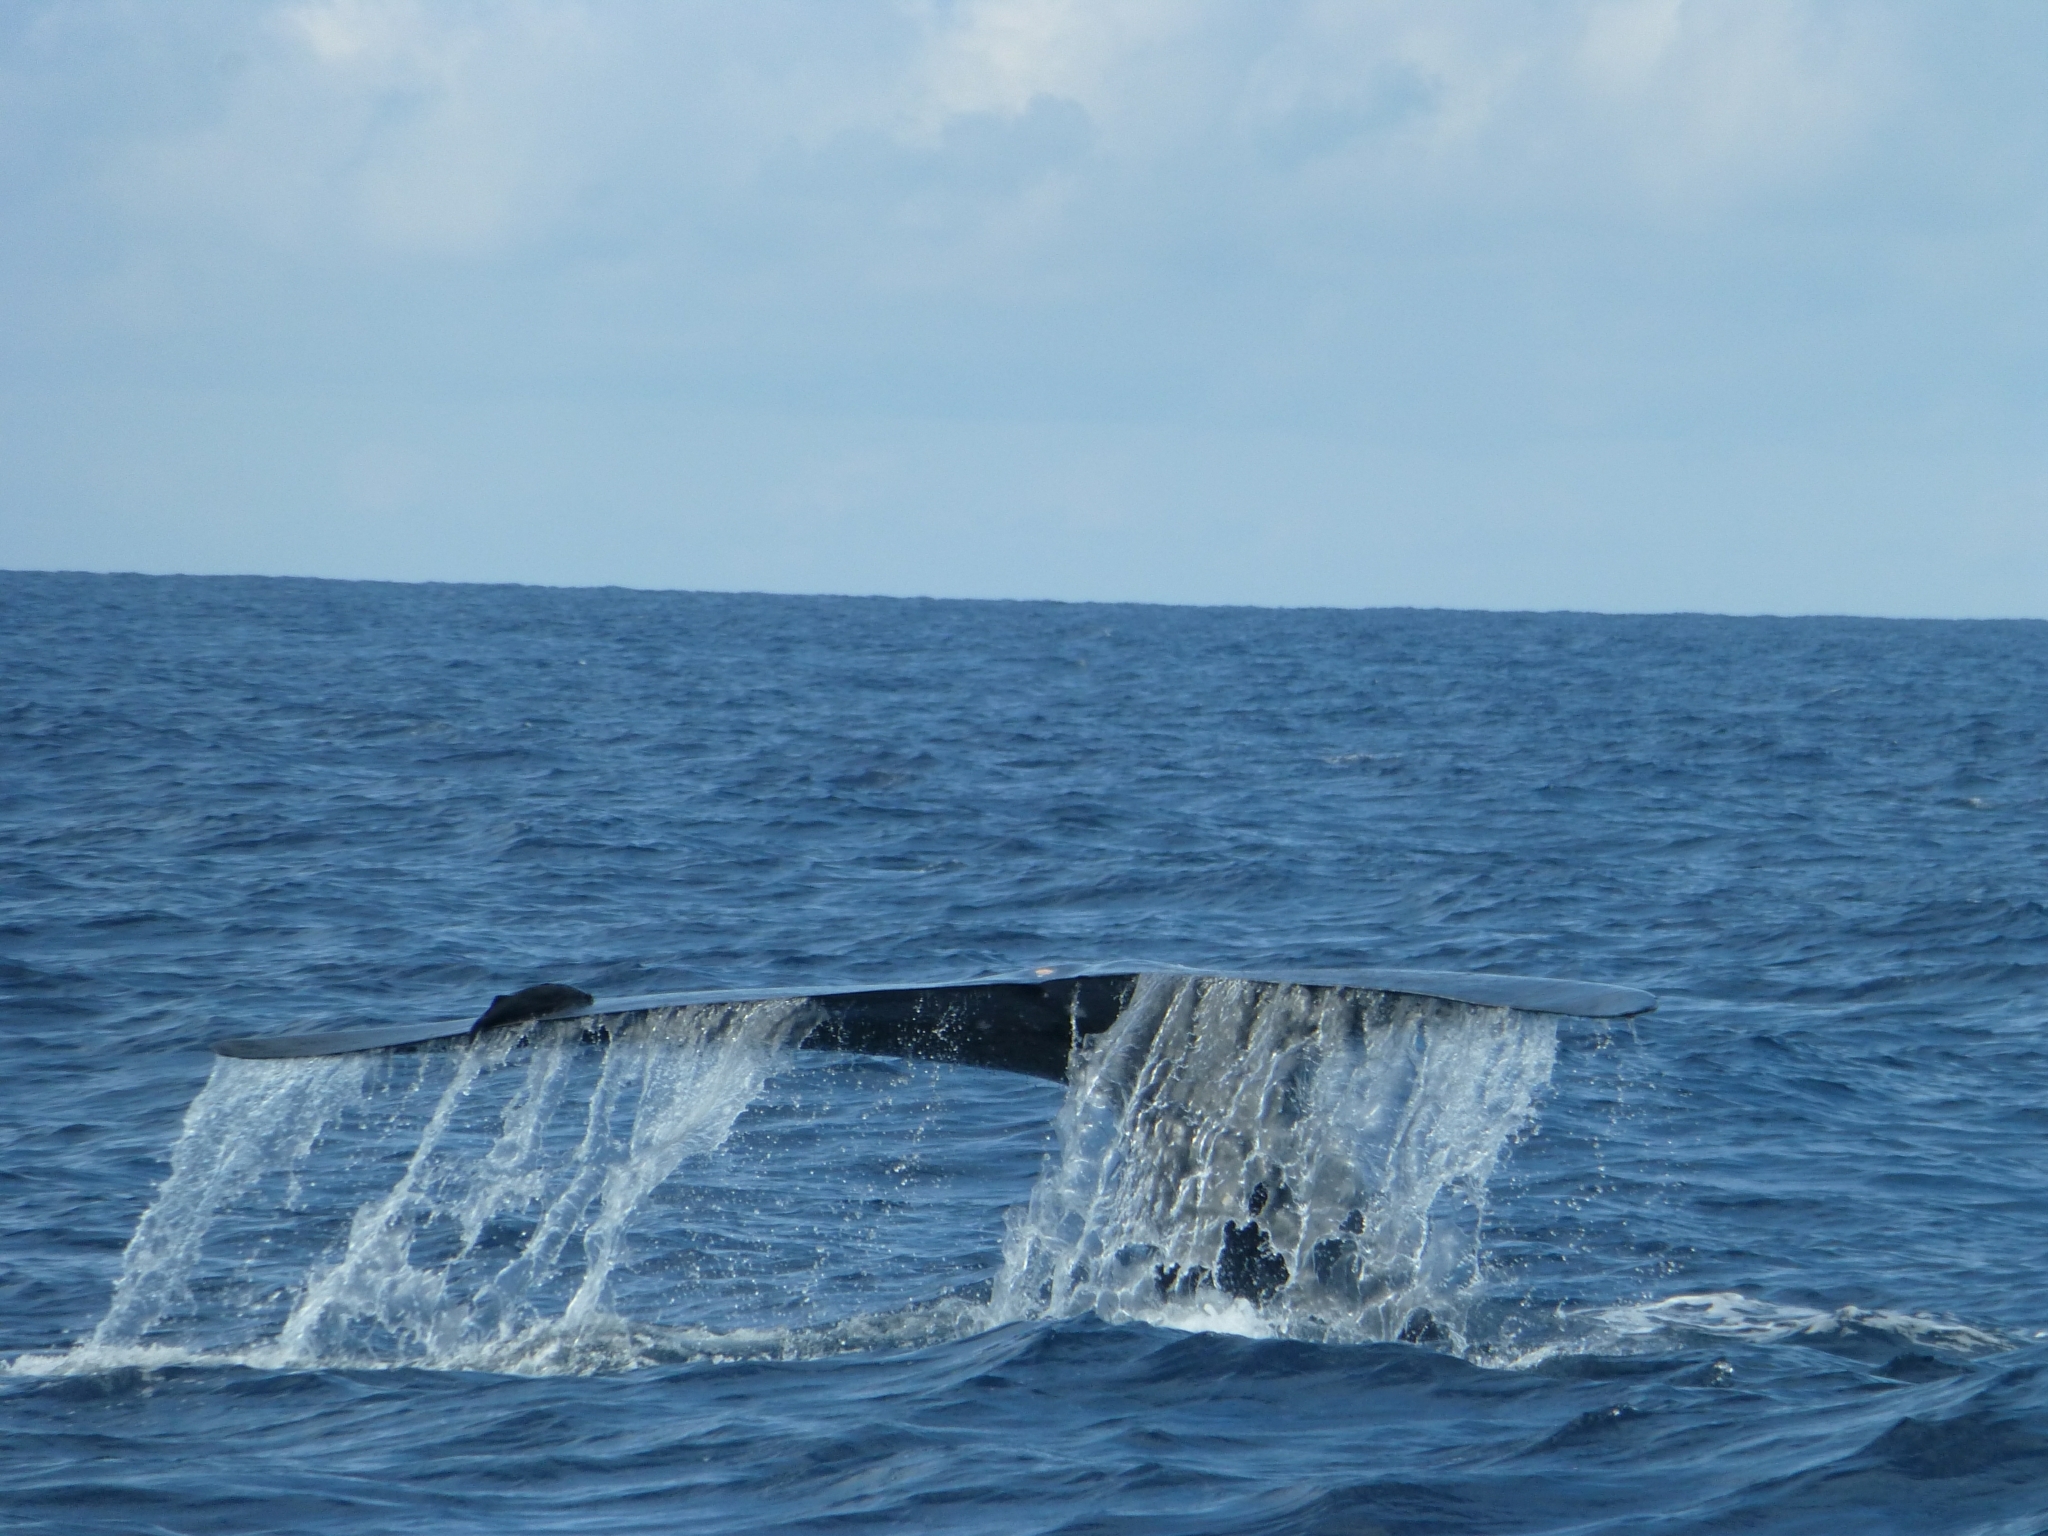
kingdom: Animalia
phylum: Chordata
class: Mammalia
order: Cetacea
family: Balaenopteridae
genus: Balaenoptera
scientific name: Balaenoptera musculus
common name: Blue whale
